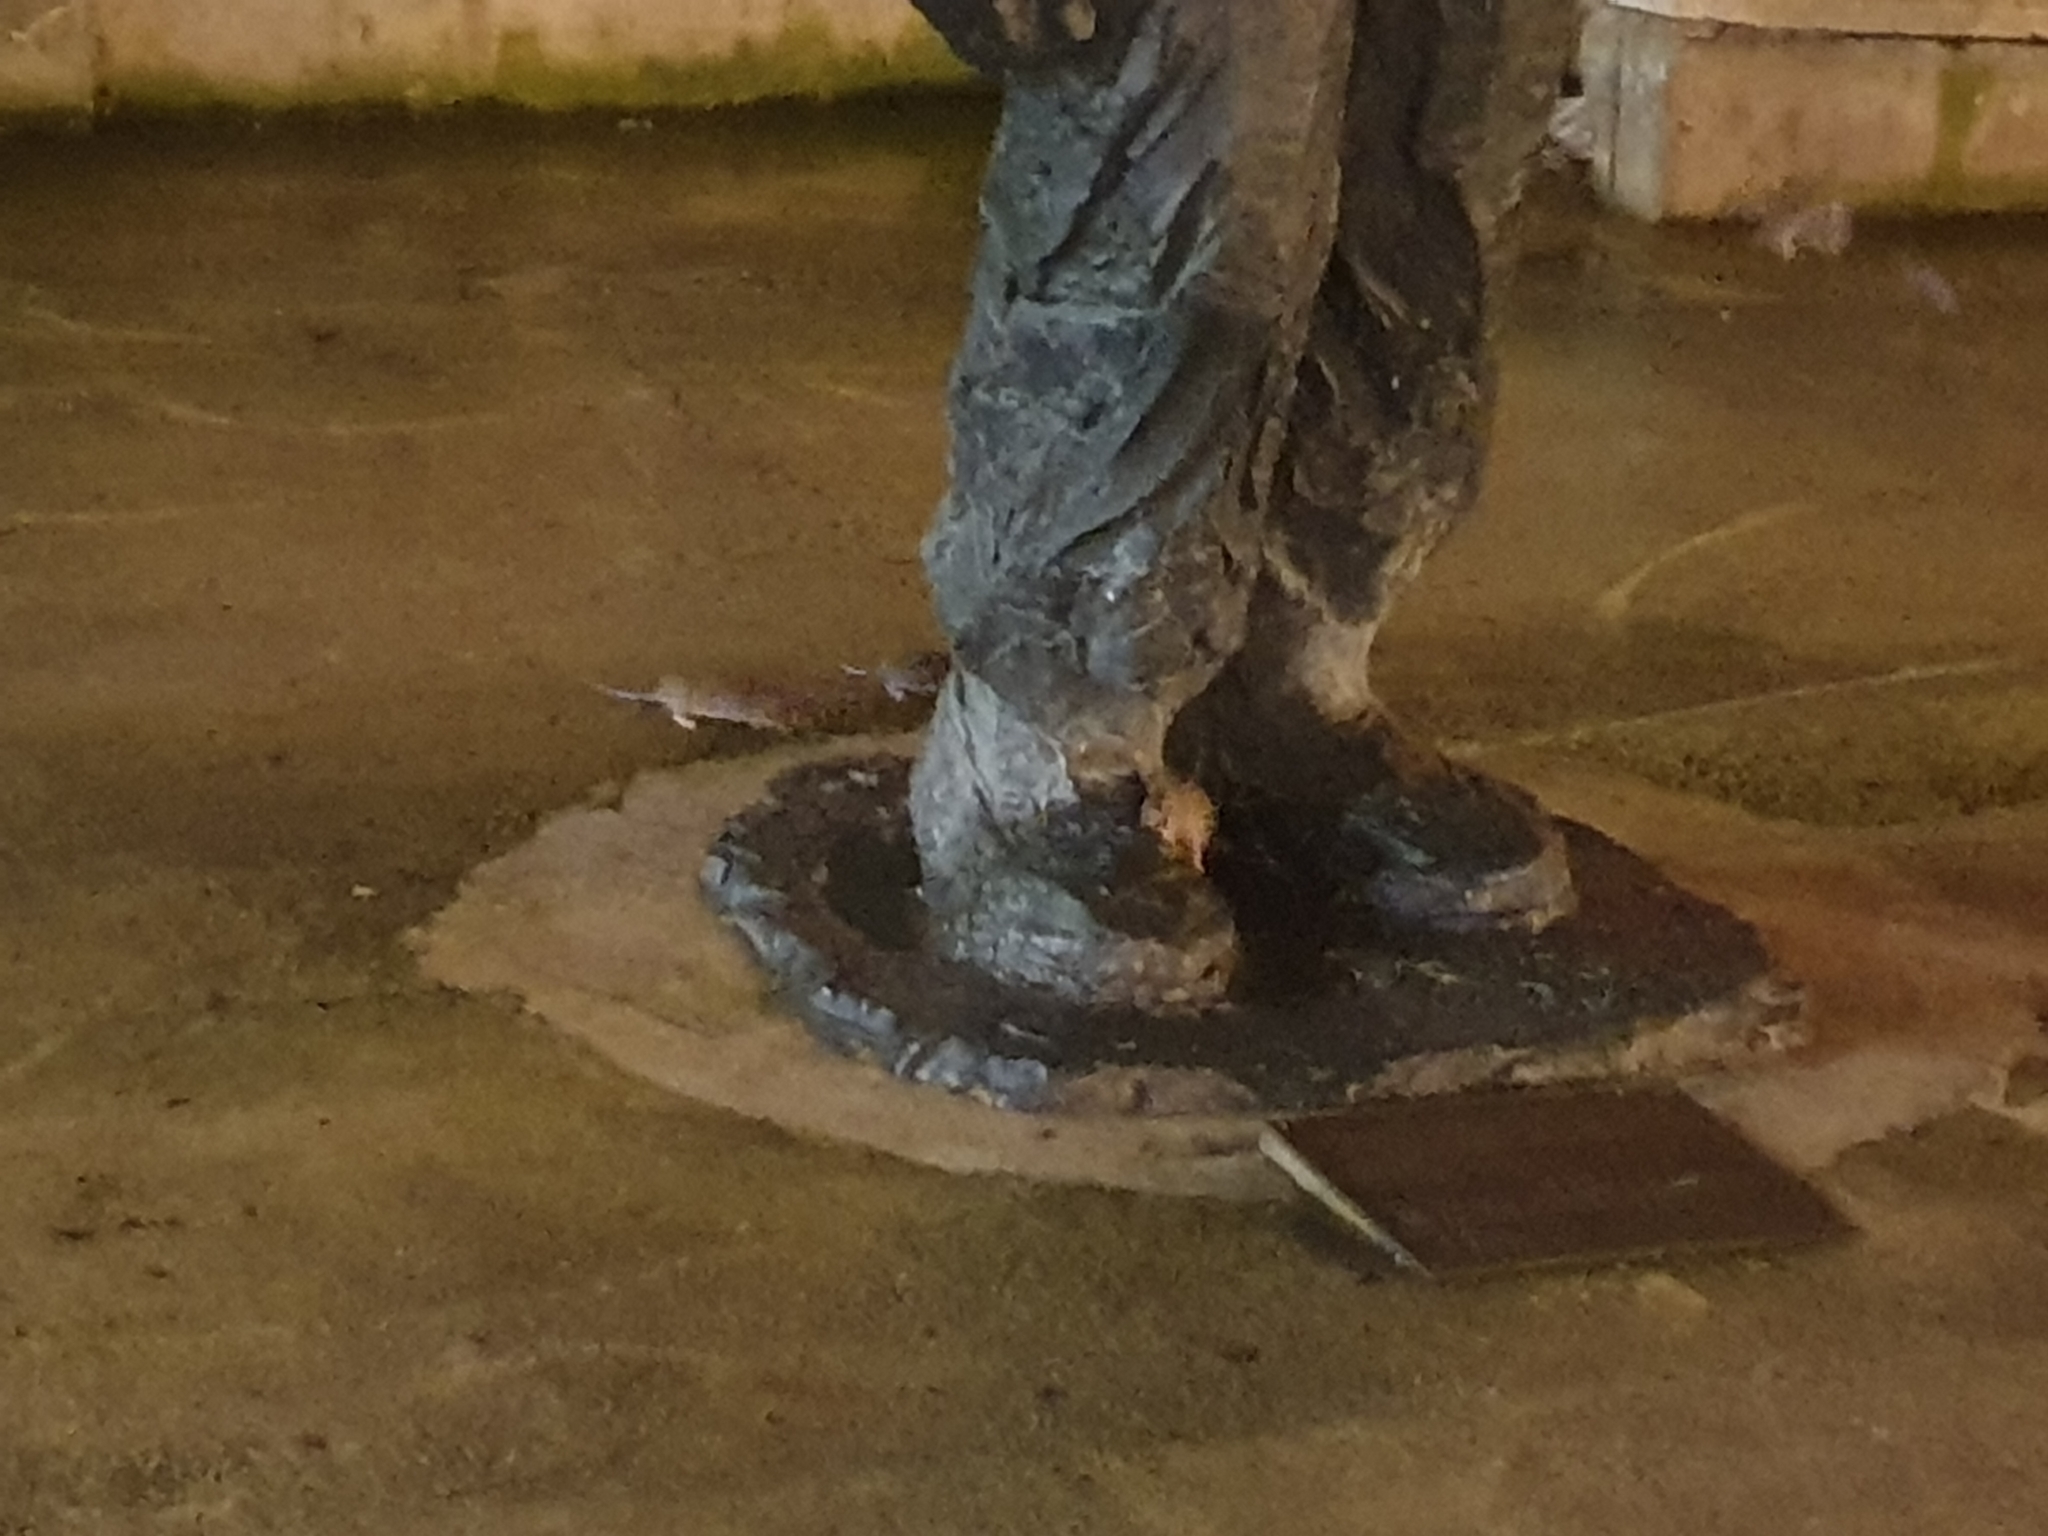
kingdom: Animalia
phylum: Chordata
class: Mammalia
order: Rodentia
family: Muridae
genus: Rattus
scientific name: Rattus norvegicus
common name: Brown rat
